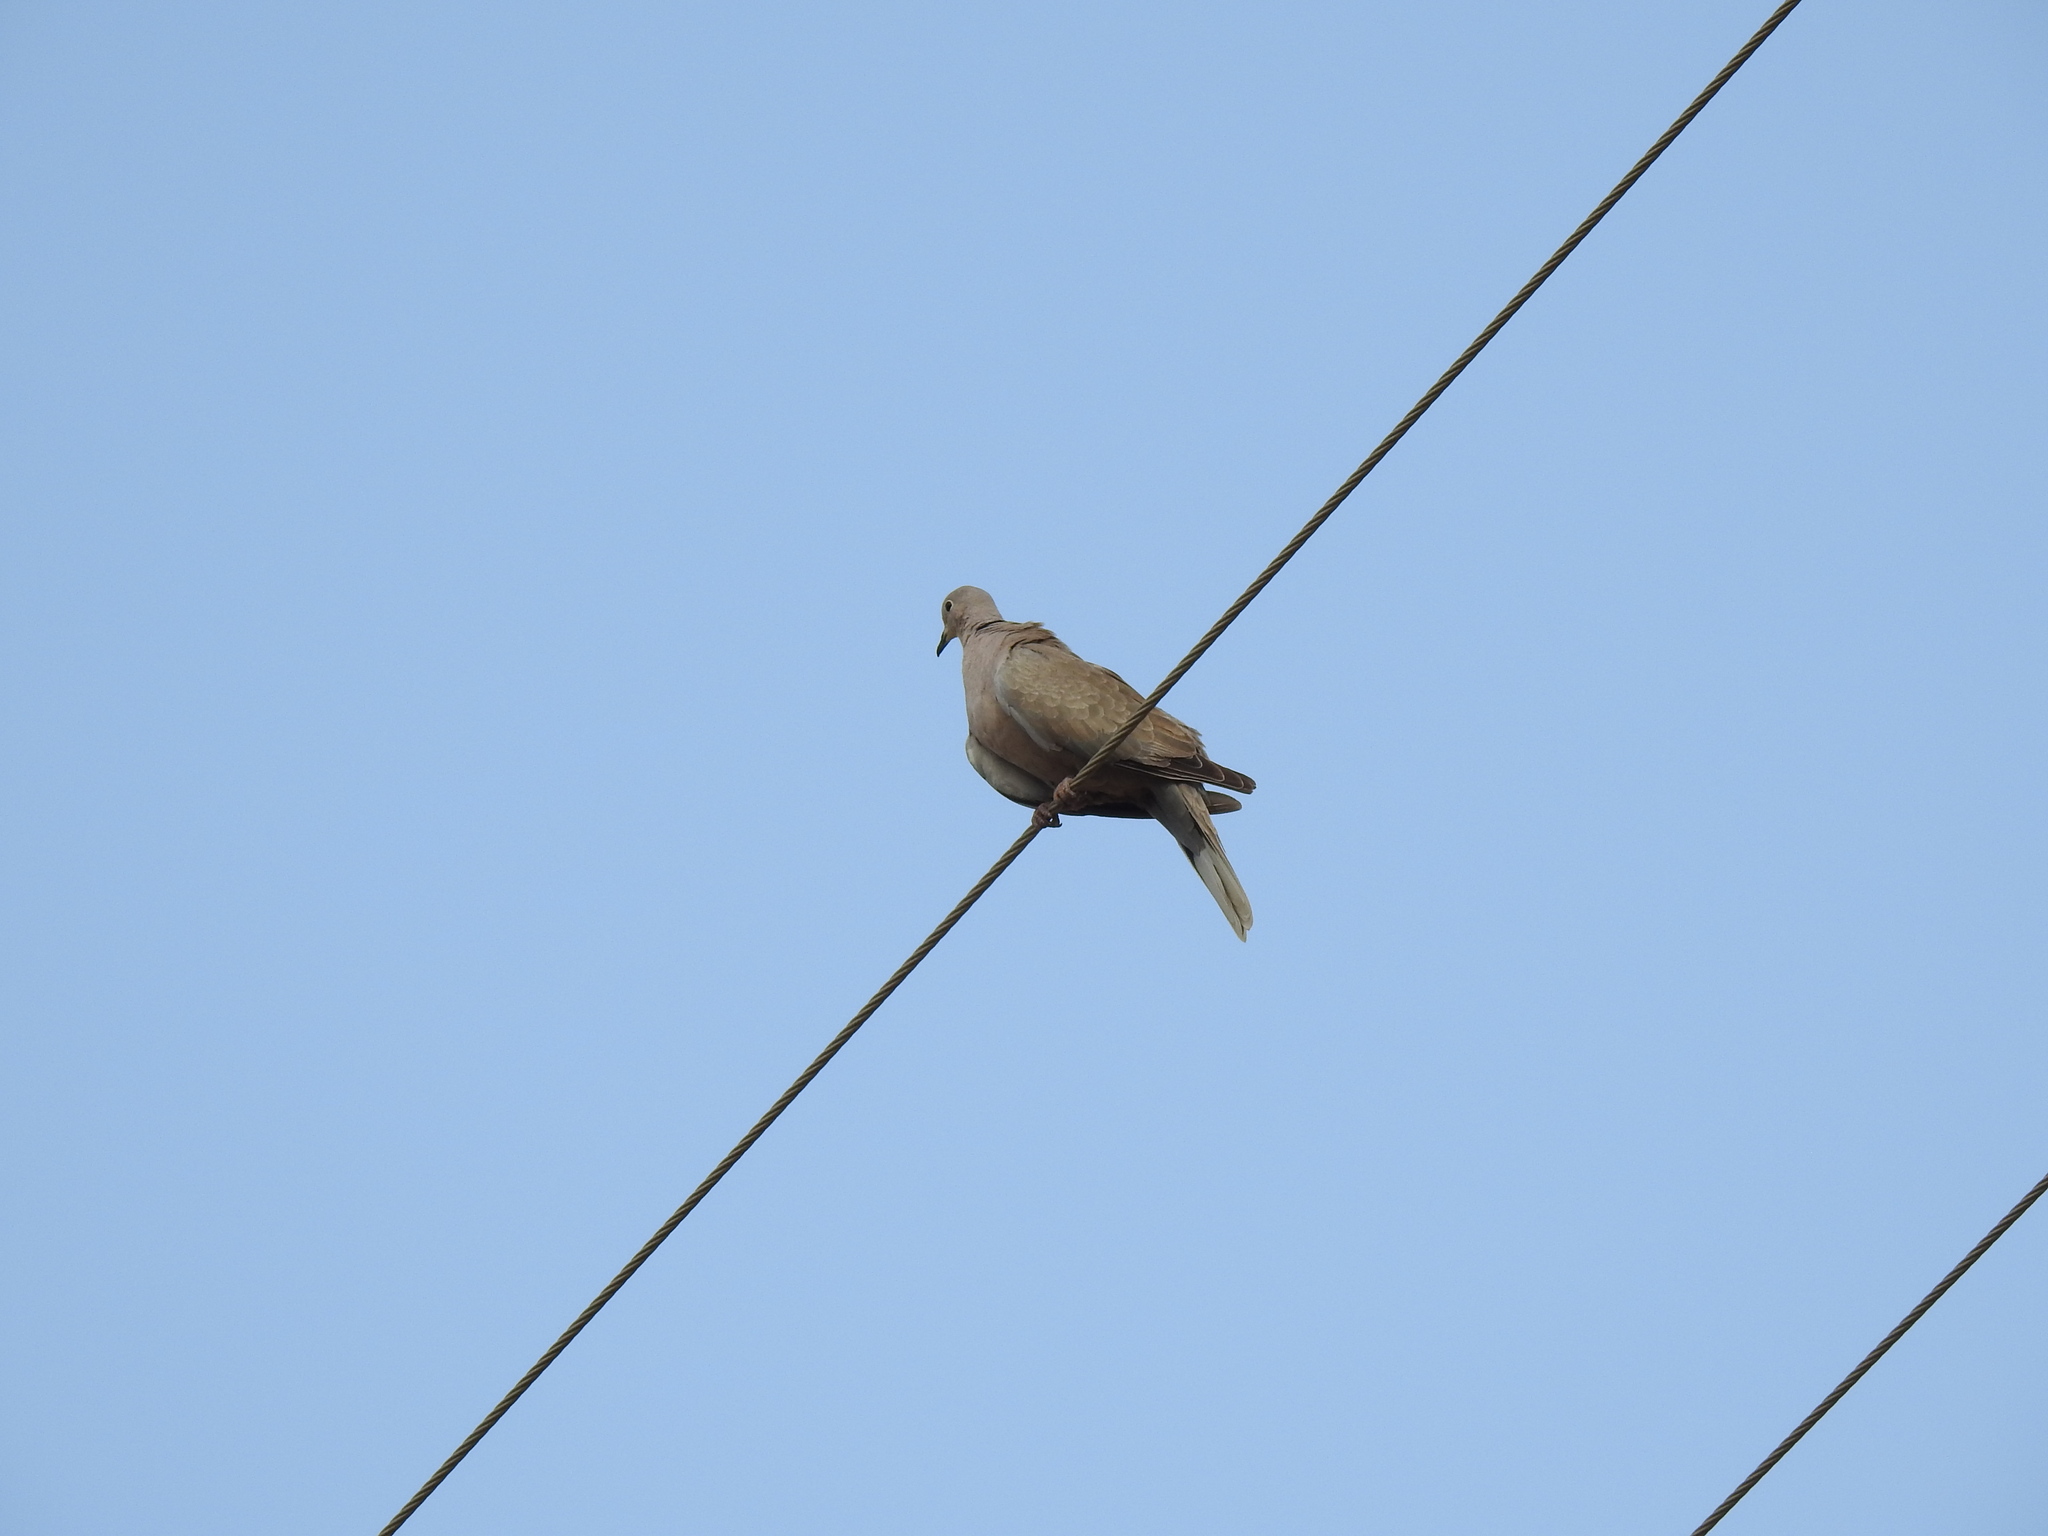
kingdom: Animalia
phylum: Chordata
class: Aves
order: Columbiformes
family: Columbidae
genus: Streptopelia
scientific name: Streptopelia decaocto
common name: Eurasian collared dove
